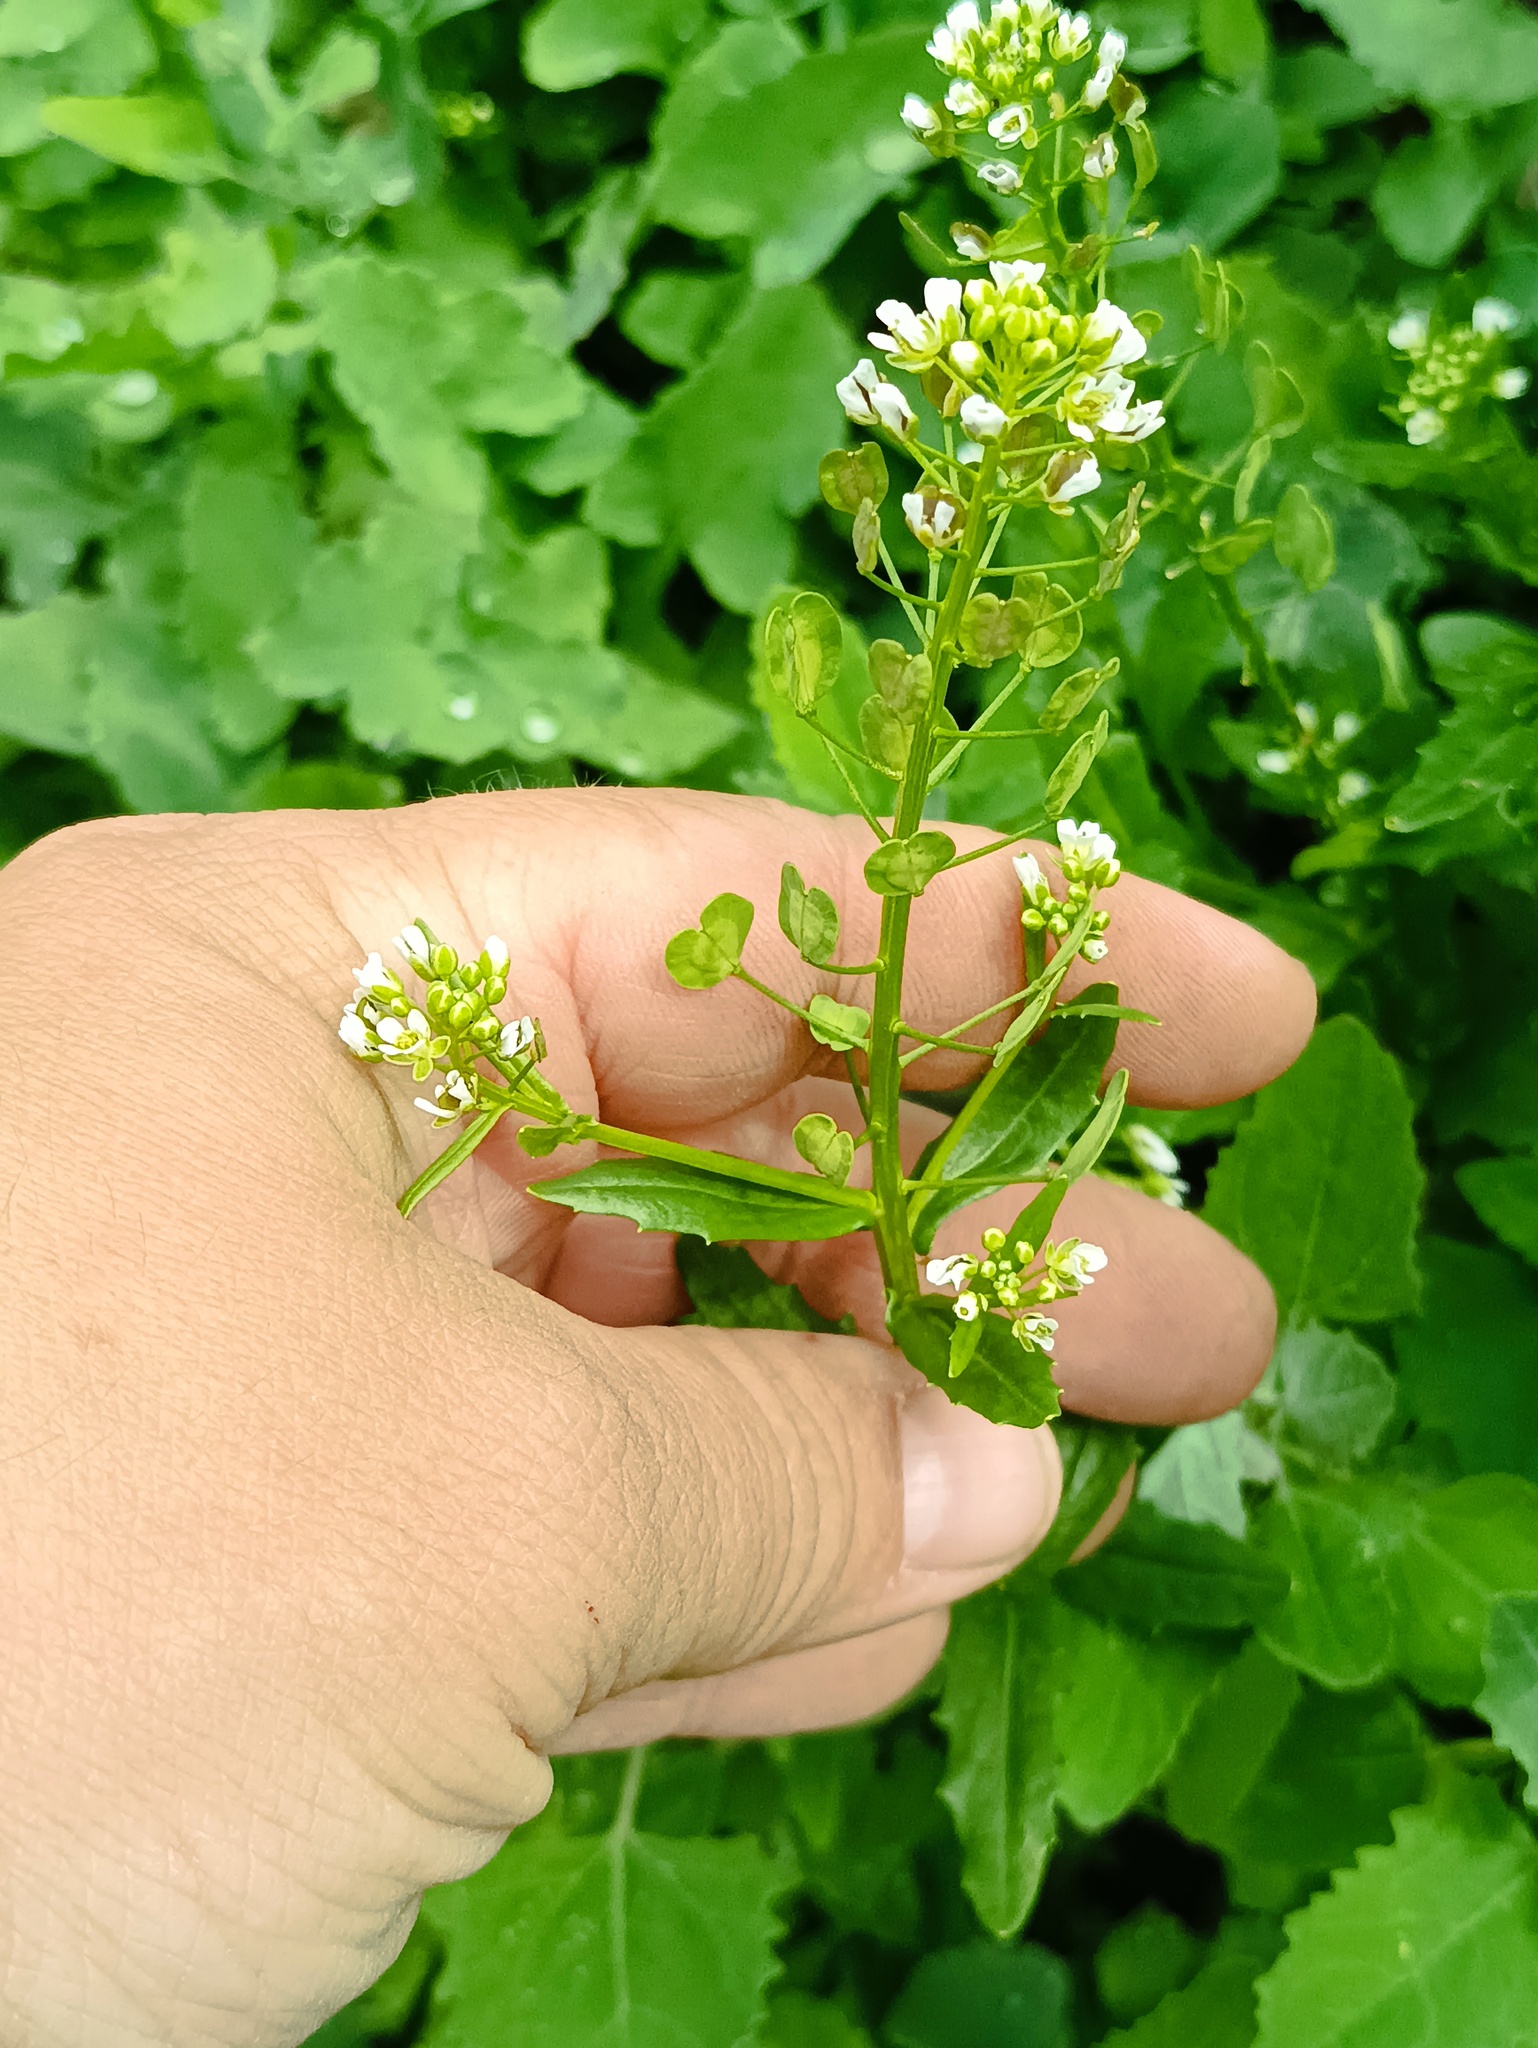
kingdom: Plantae
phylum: Tracheophyta
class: Magnoliopsida
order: Brassicales
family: Brassicaceae
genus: Thlaspi
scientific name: Thlaspi arvense
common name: Field pennycress
